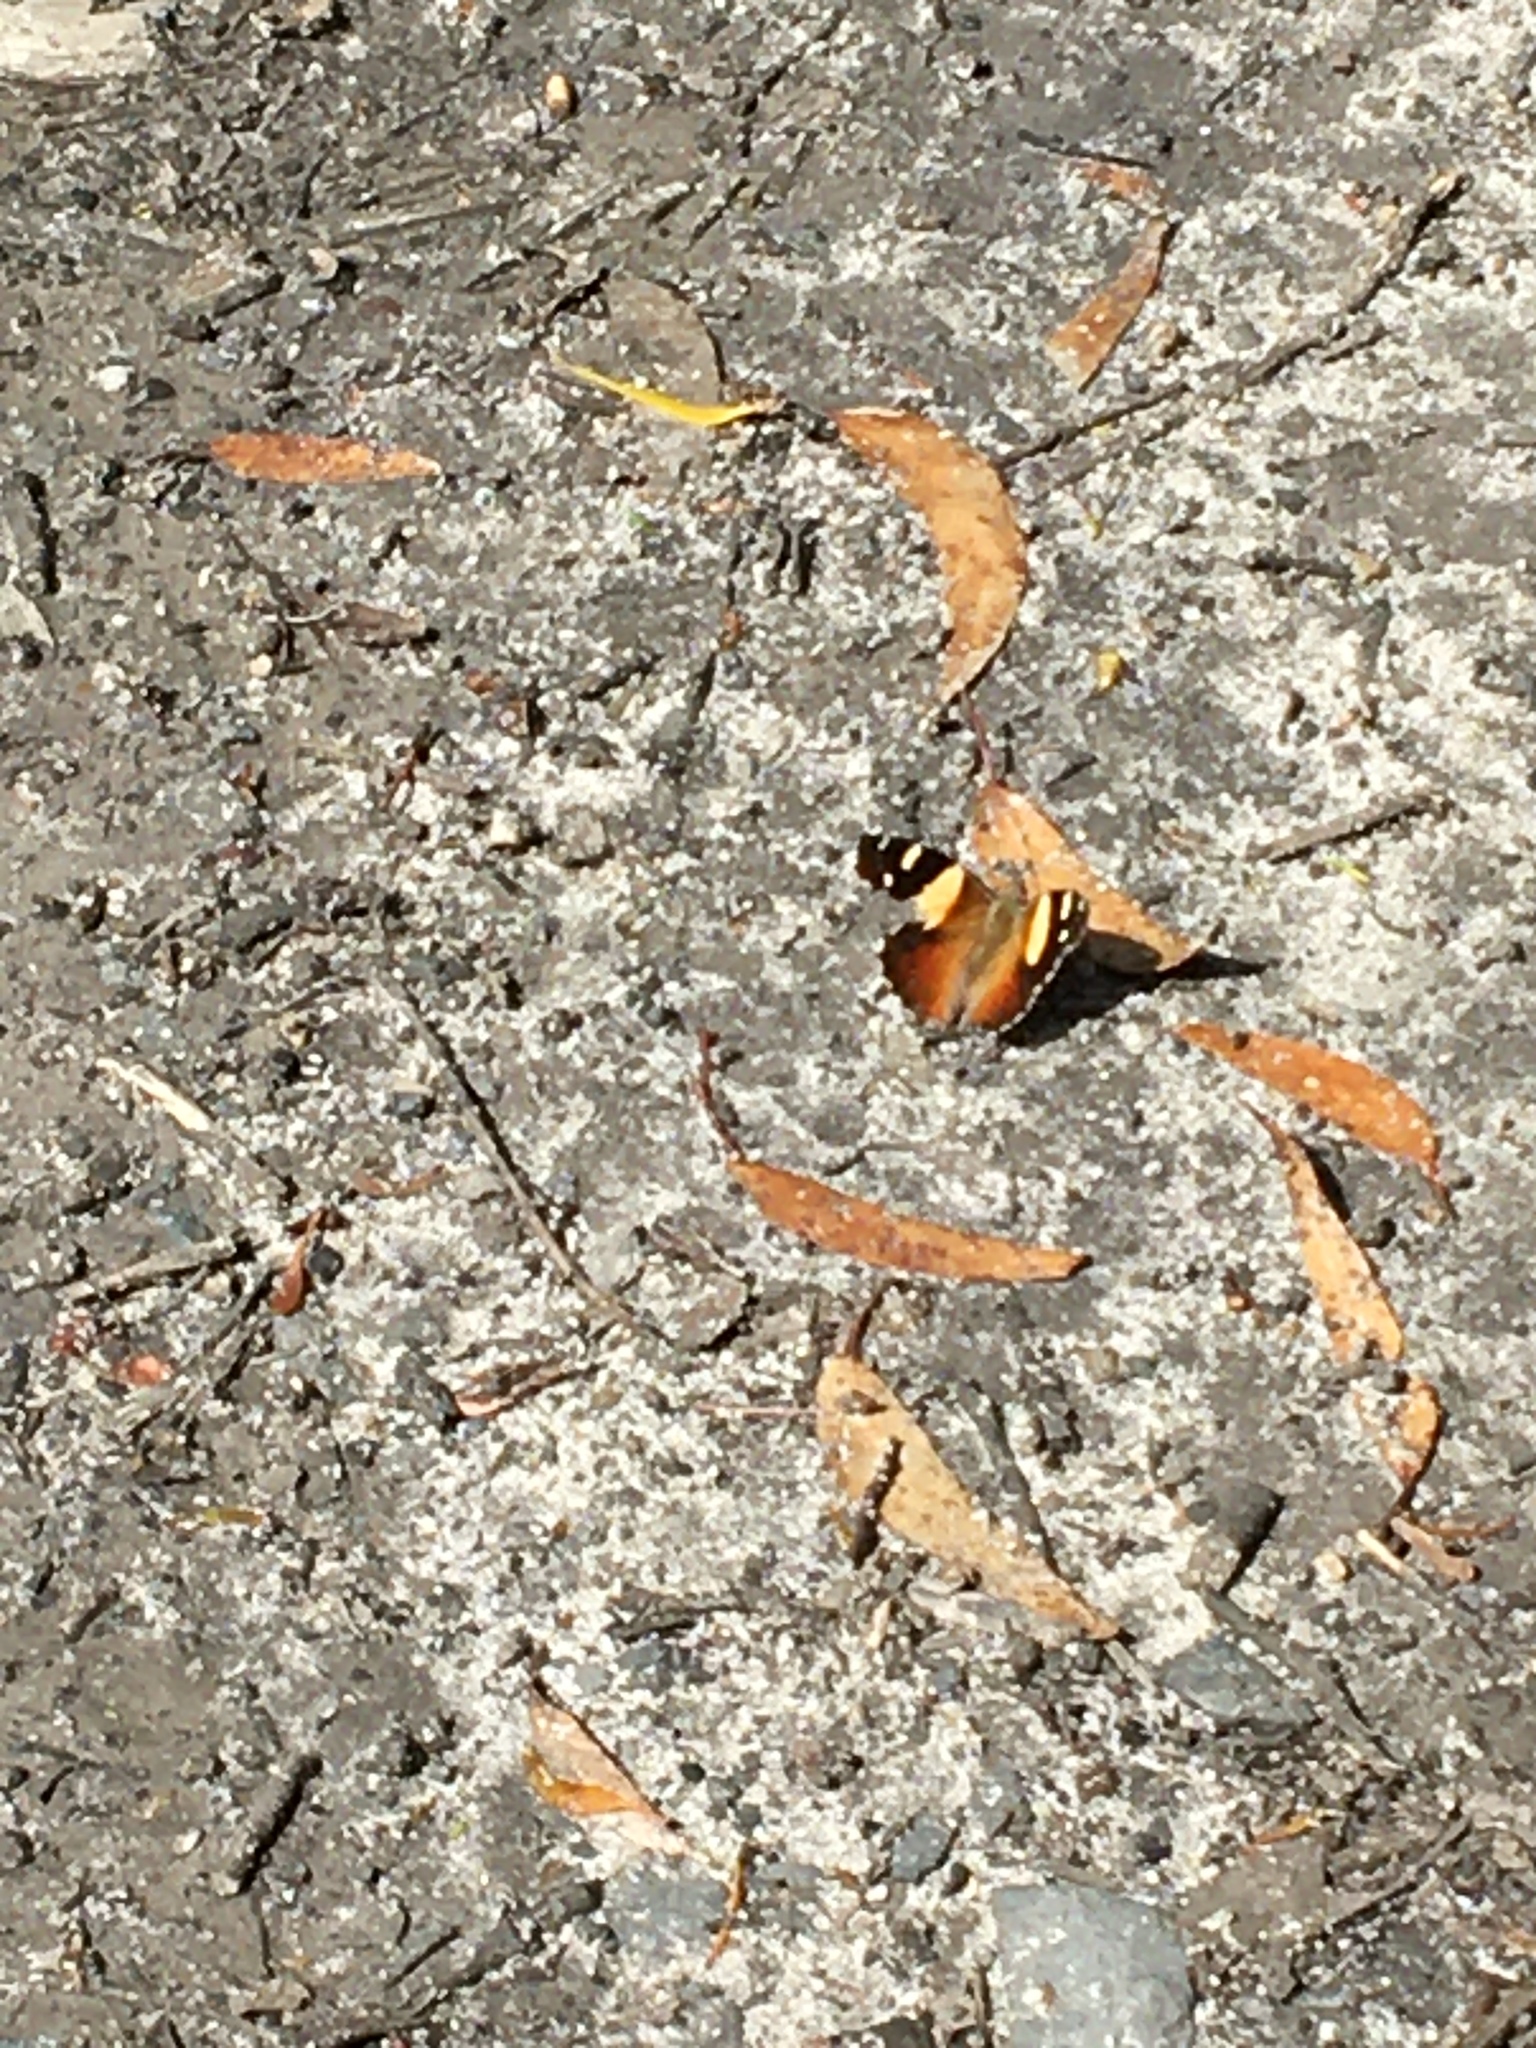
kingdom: Animalia
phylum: Arthropoda
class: Insecta
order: Lepidoptera
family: Nymphalidae
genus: Vanessa
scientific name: Vanessa itea
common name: Yellow admiral
